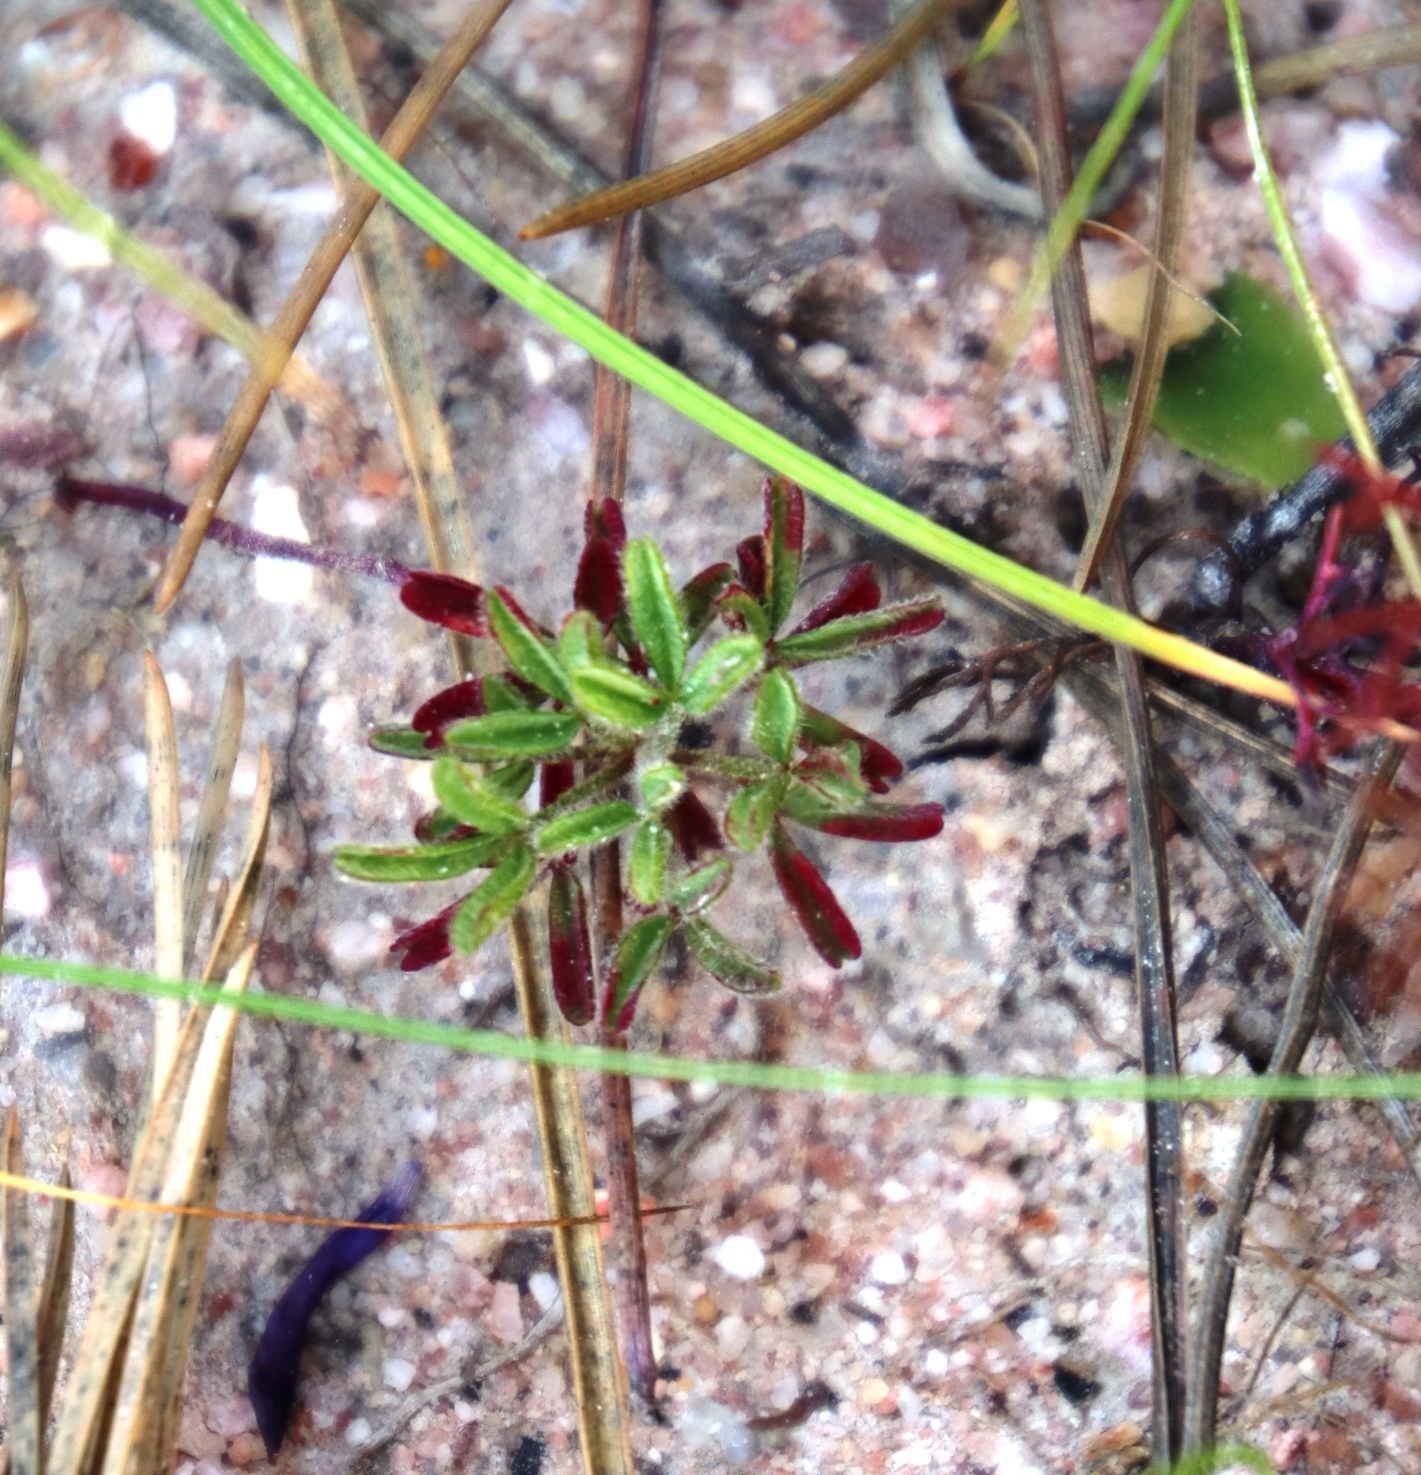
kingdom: Plantae
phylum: Tracheophyta
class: Magnoliopsida
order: Oxalidales
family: Oxalidaceae
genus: Oxalis
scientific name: Oxalis glabra
